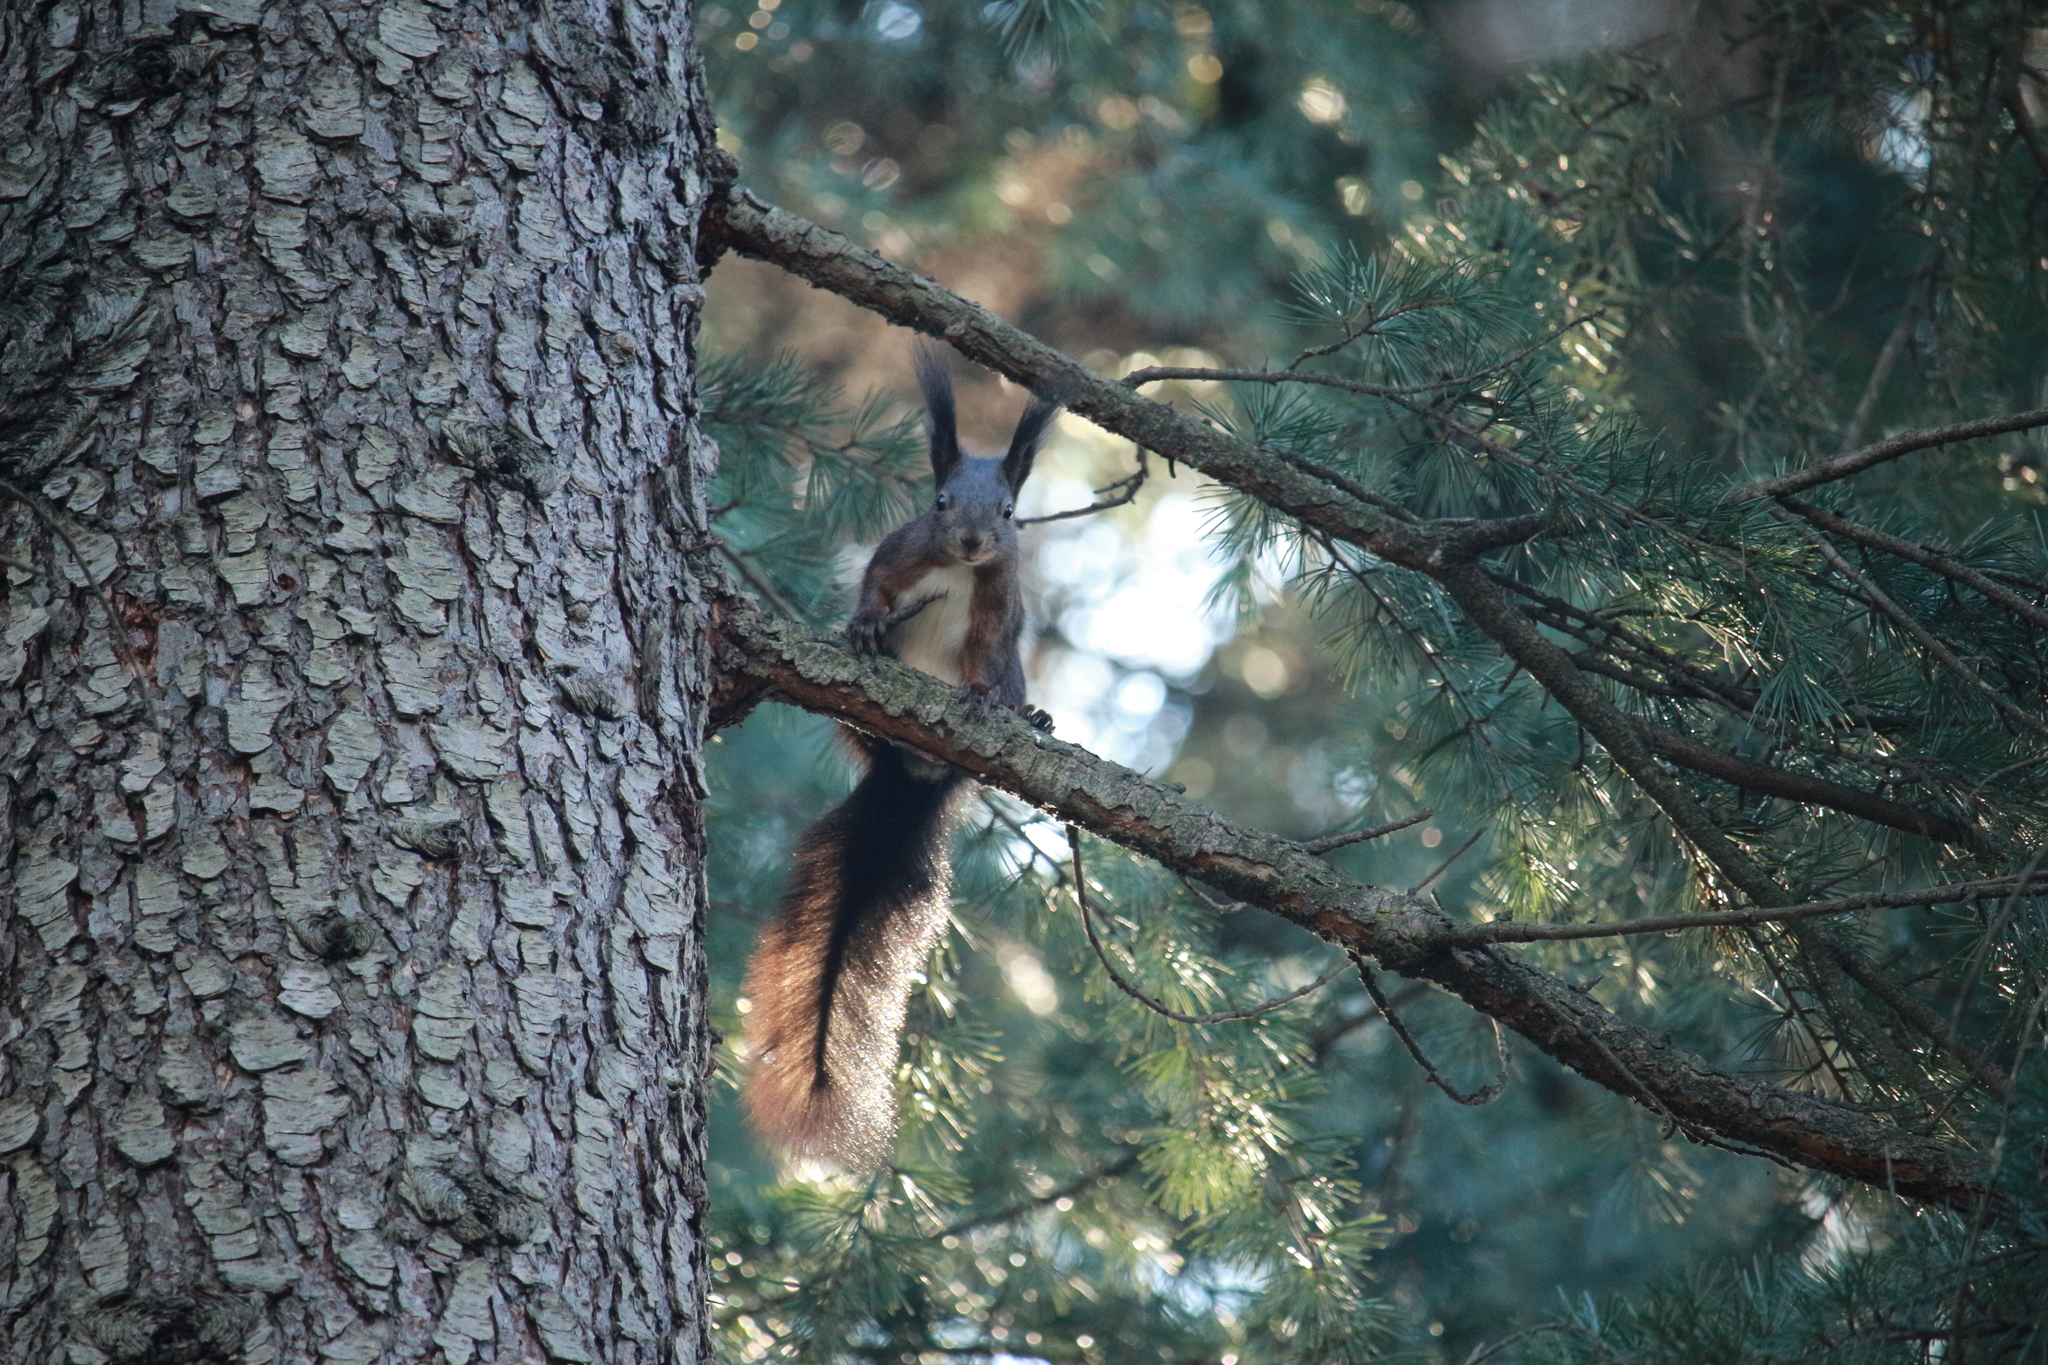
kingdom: Animalia
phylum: Chordata
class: Mammalia
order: Rodentia
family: Sciuridae
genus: Sciurus
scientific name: Sciurus vulgaris
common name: Eurasian red squirrel
